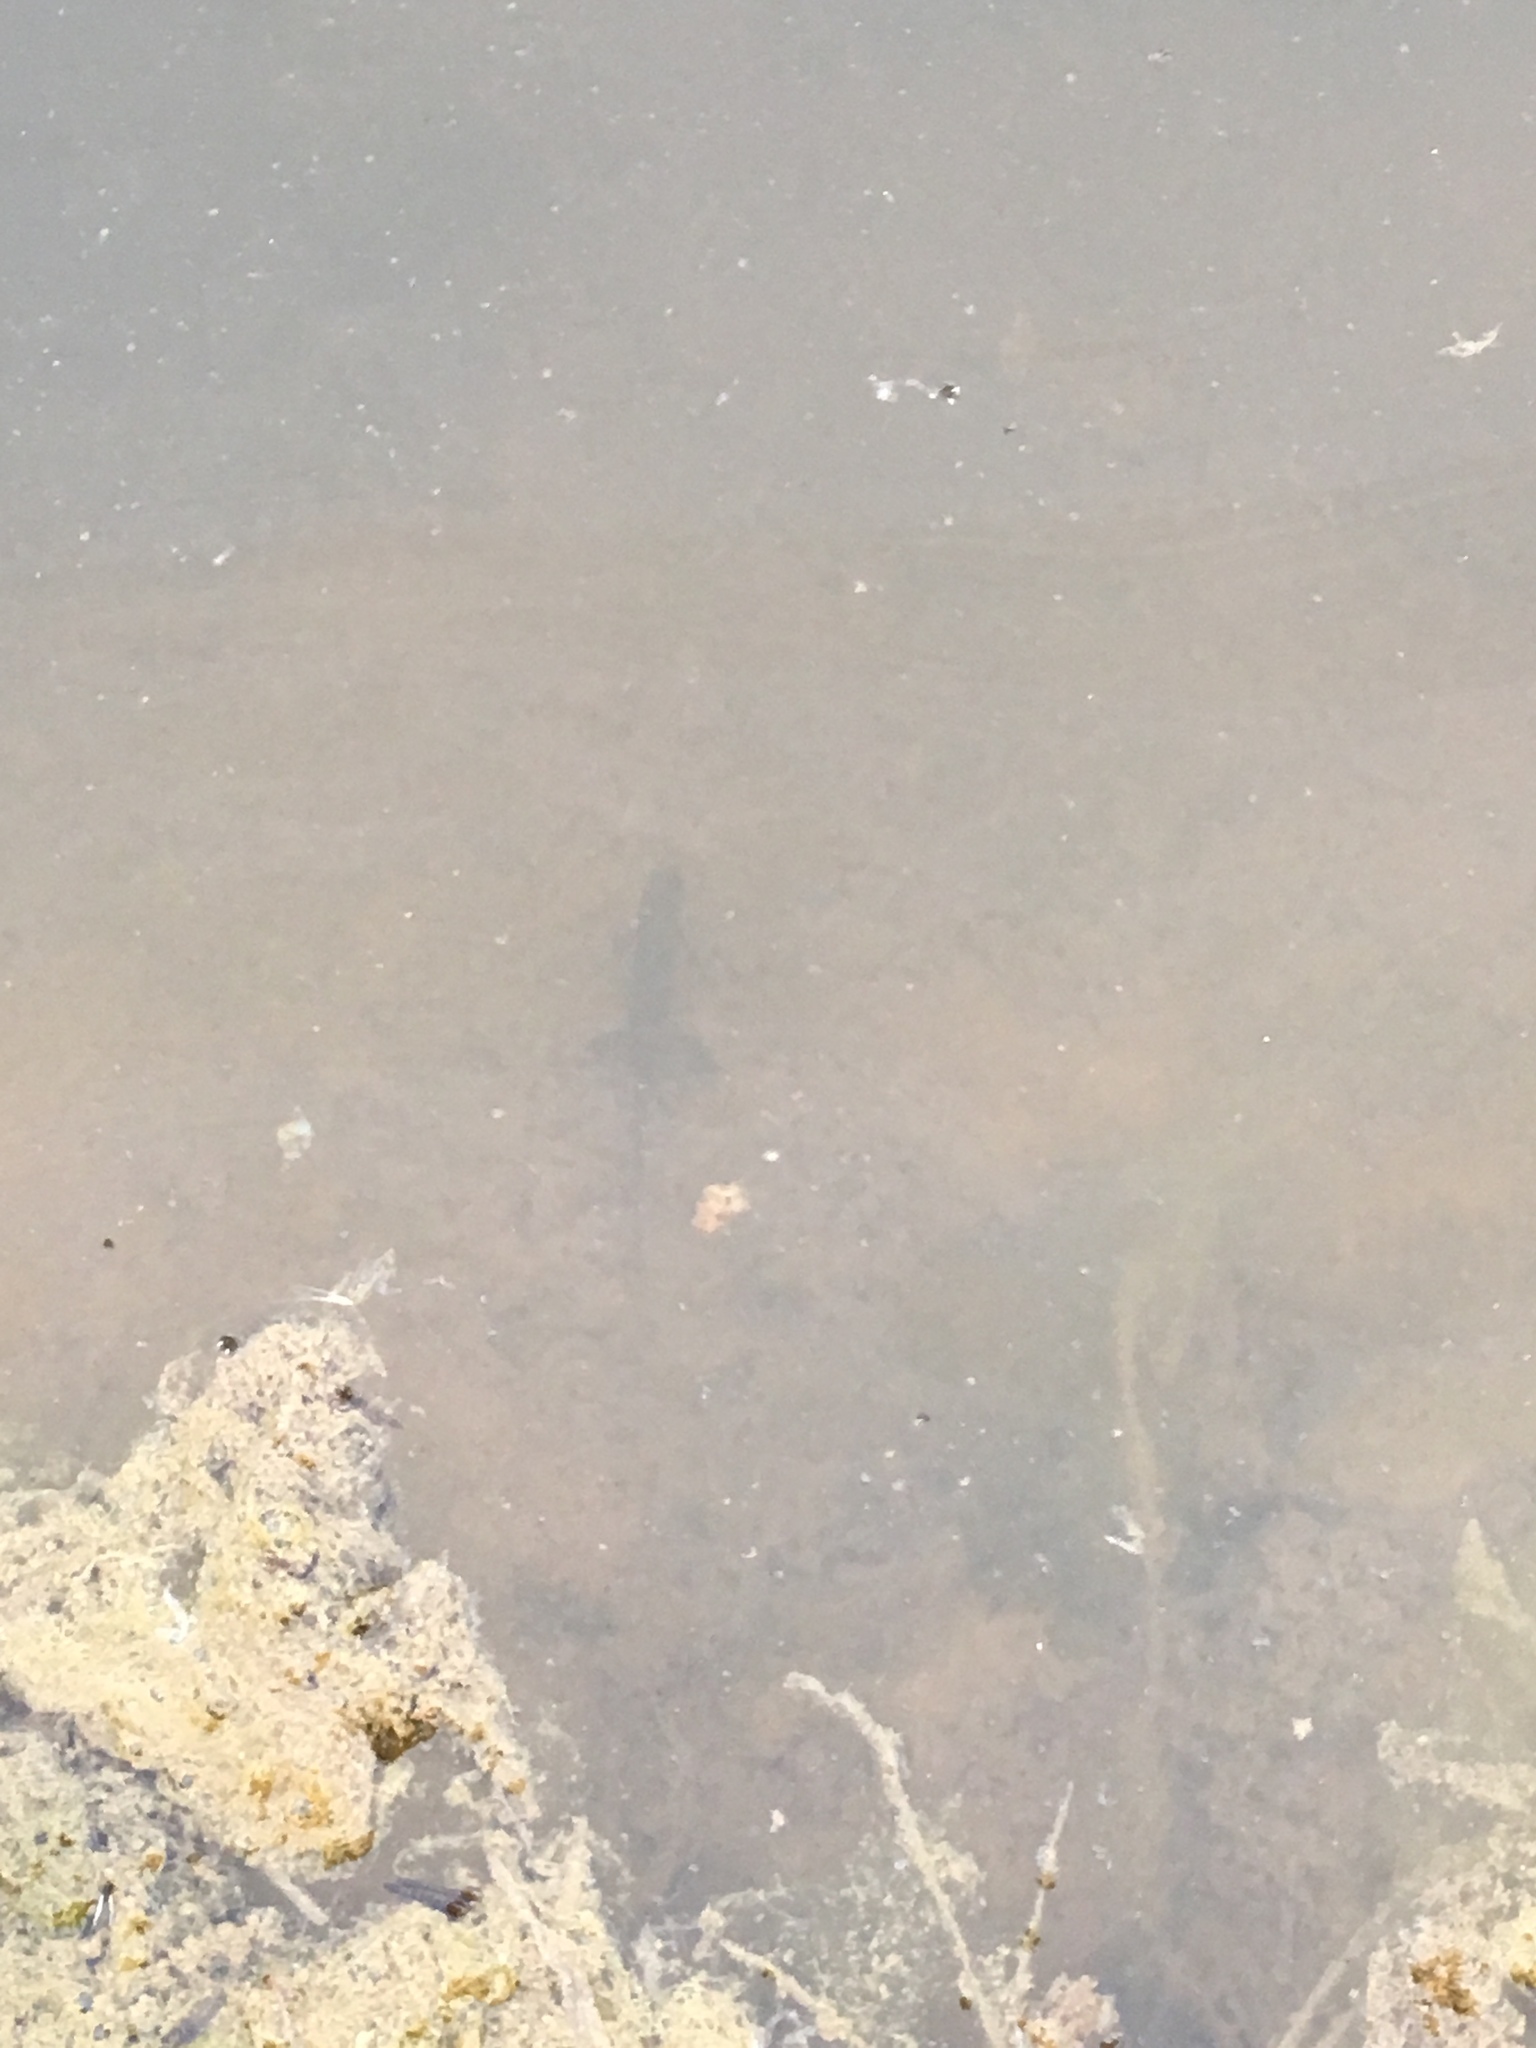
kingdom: Animalia
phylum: Chordata
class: Amphibia
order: Caudata
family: Salamandridae
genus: Notophthalmus
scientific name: Notophthalmus viridescens
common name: Eastern newt
